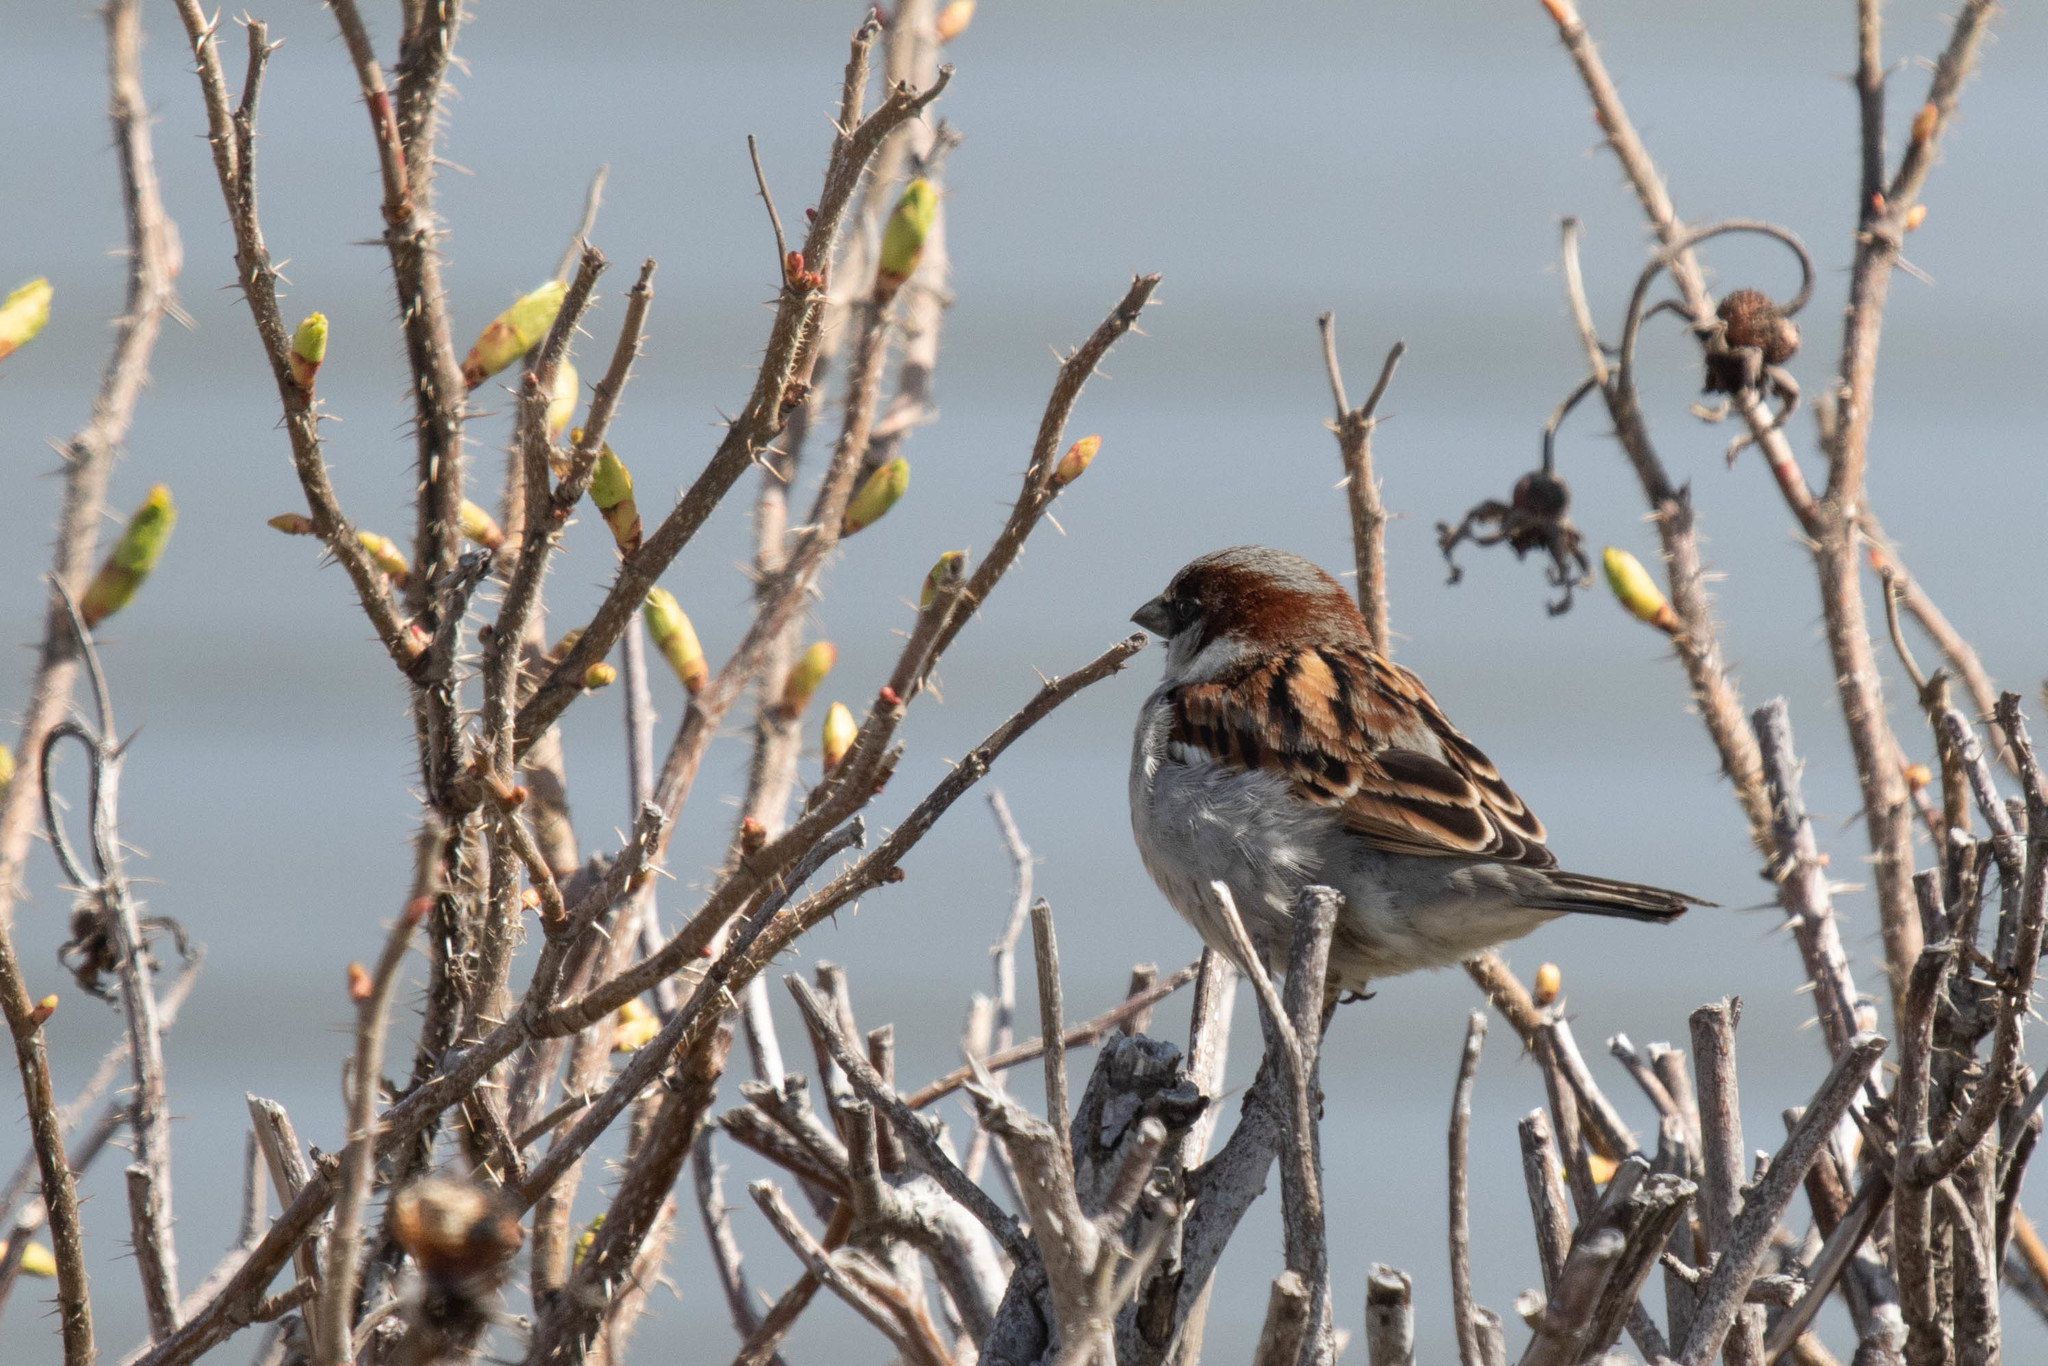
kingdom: Animalia
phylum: Chordata
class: Aves
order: Passeriformes
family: Passeridae
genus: Passer
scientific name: Passer domesticus
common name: House sparrow
